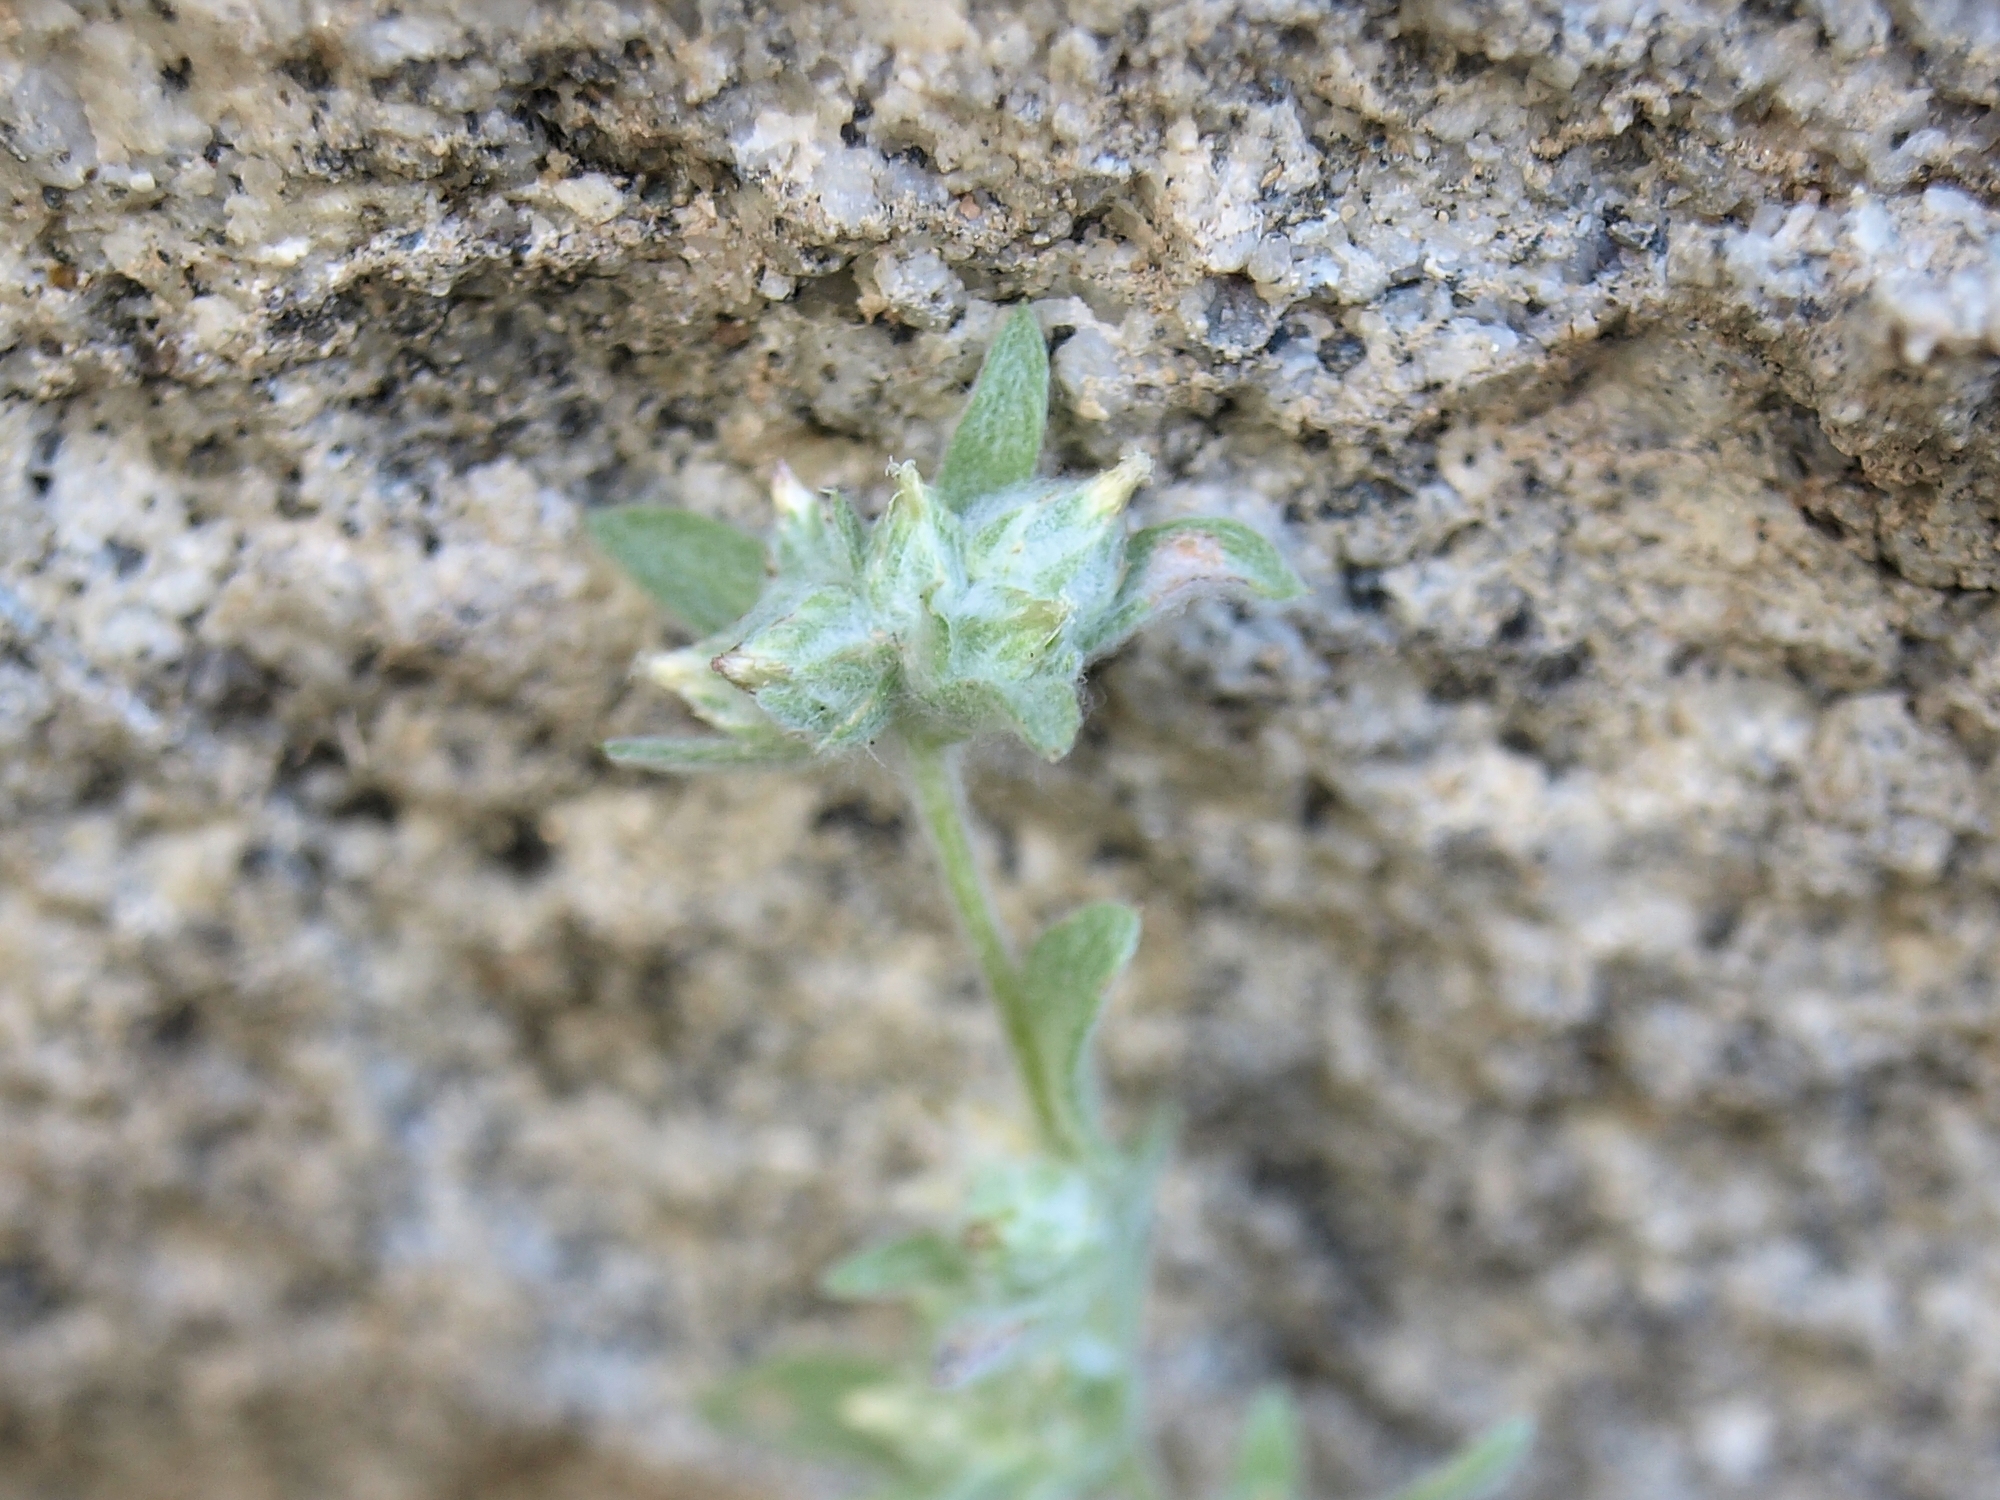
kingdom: Plantae
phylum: Tracheophyta
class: Magnoliopsida
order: Asterales
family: Asteraceae
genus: Logfia
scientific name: Logfia californica
